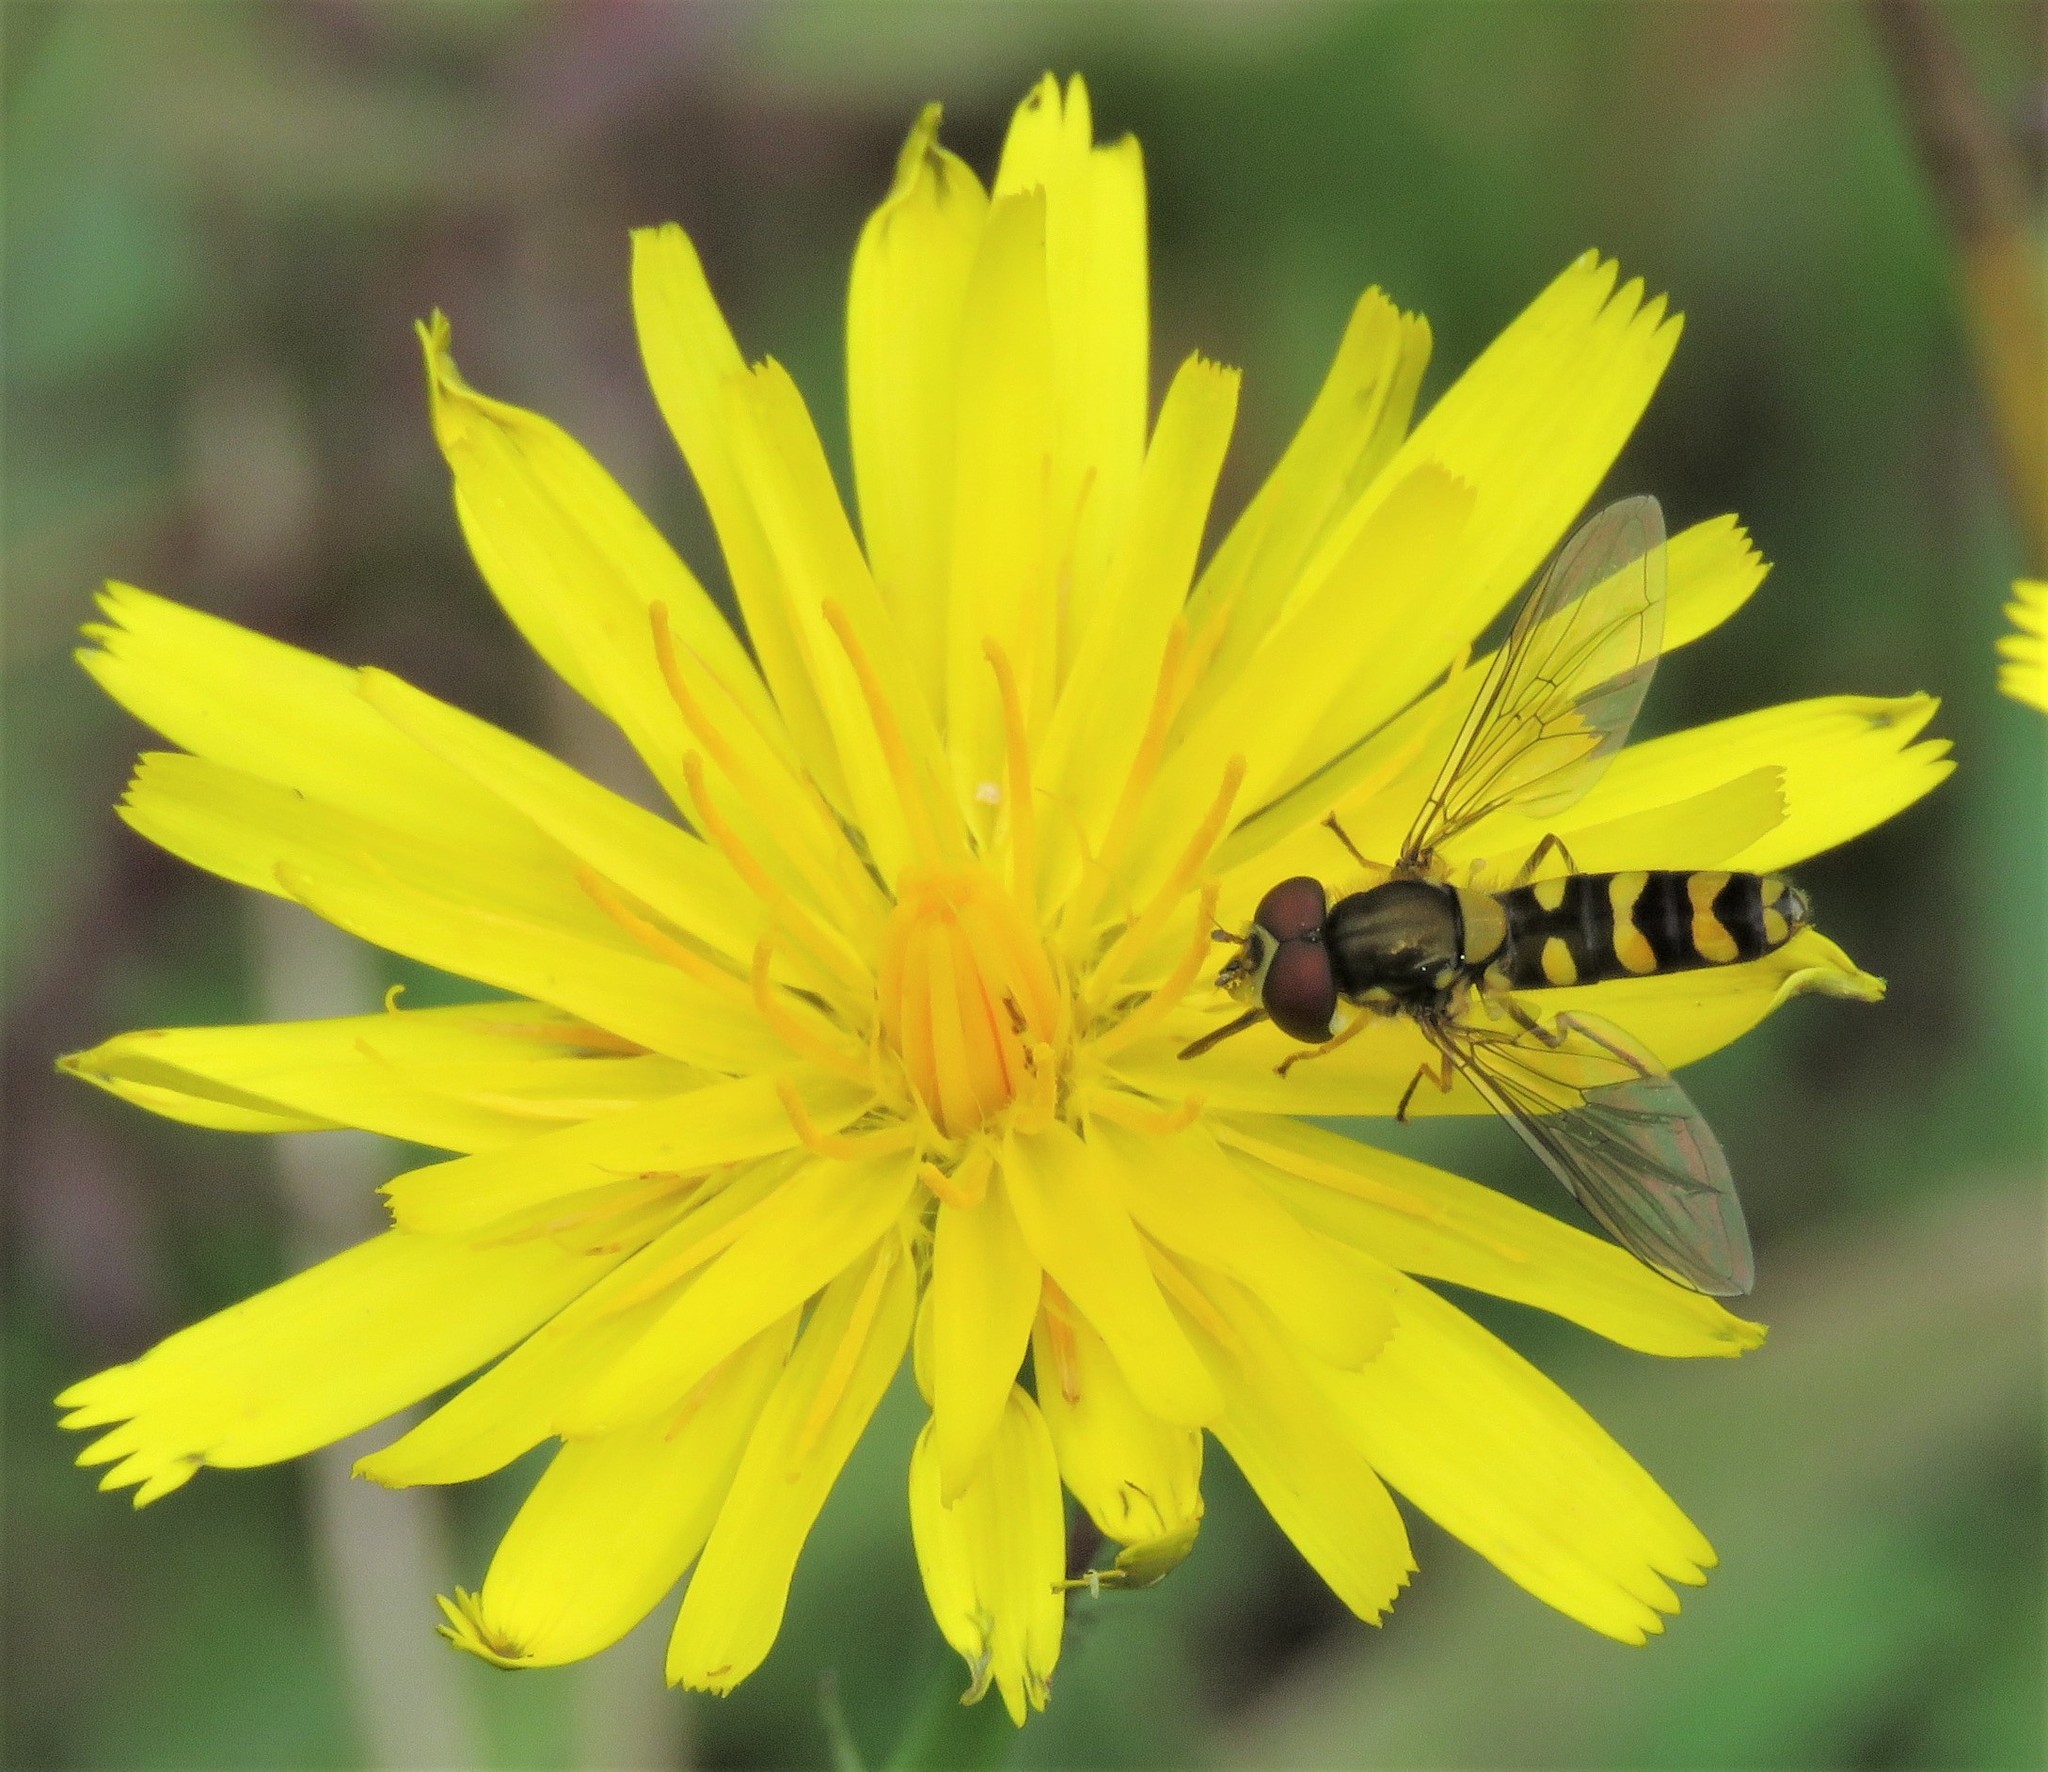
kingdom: Plantae
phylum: Tracheophyta
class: Magnoliopsida
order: Asterales
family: Asteraceae
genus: Hypochaeris
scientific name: Hypochaeris radicata
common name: Flatweed
